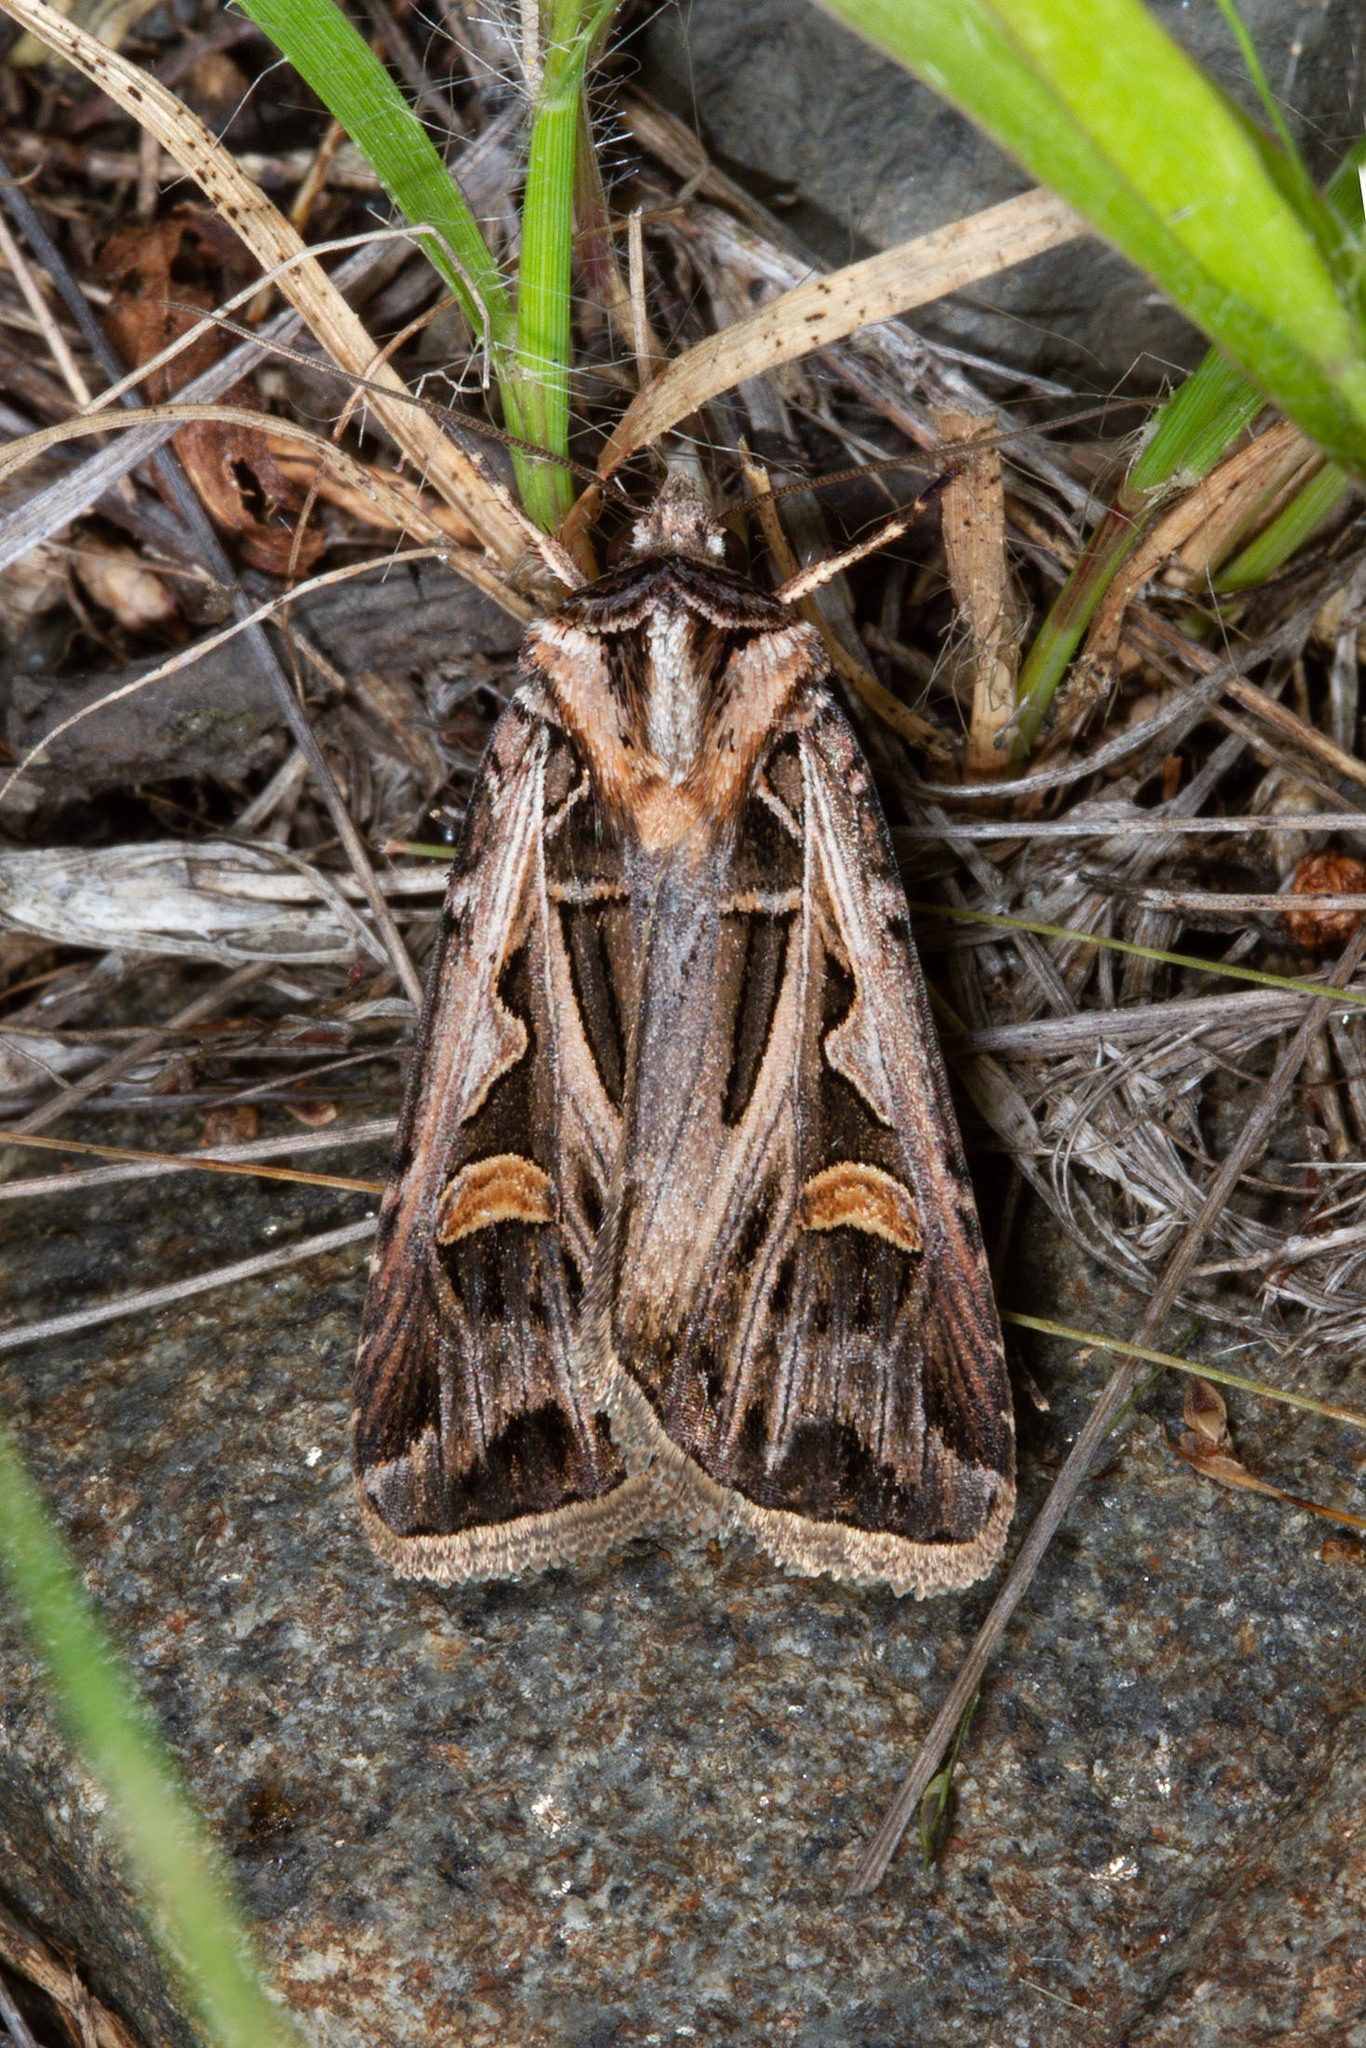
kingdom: Animalia
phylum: Arthropoda
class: Insecta
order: Lepidoptera
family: Noctuidae
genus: Feltia
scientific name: Feltia jaculifera
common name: Dingy cutworm moth
